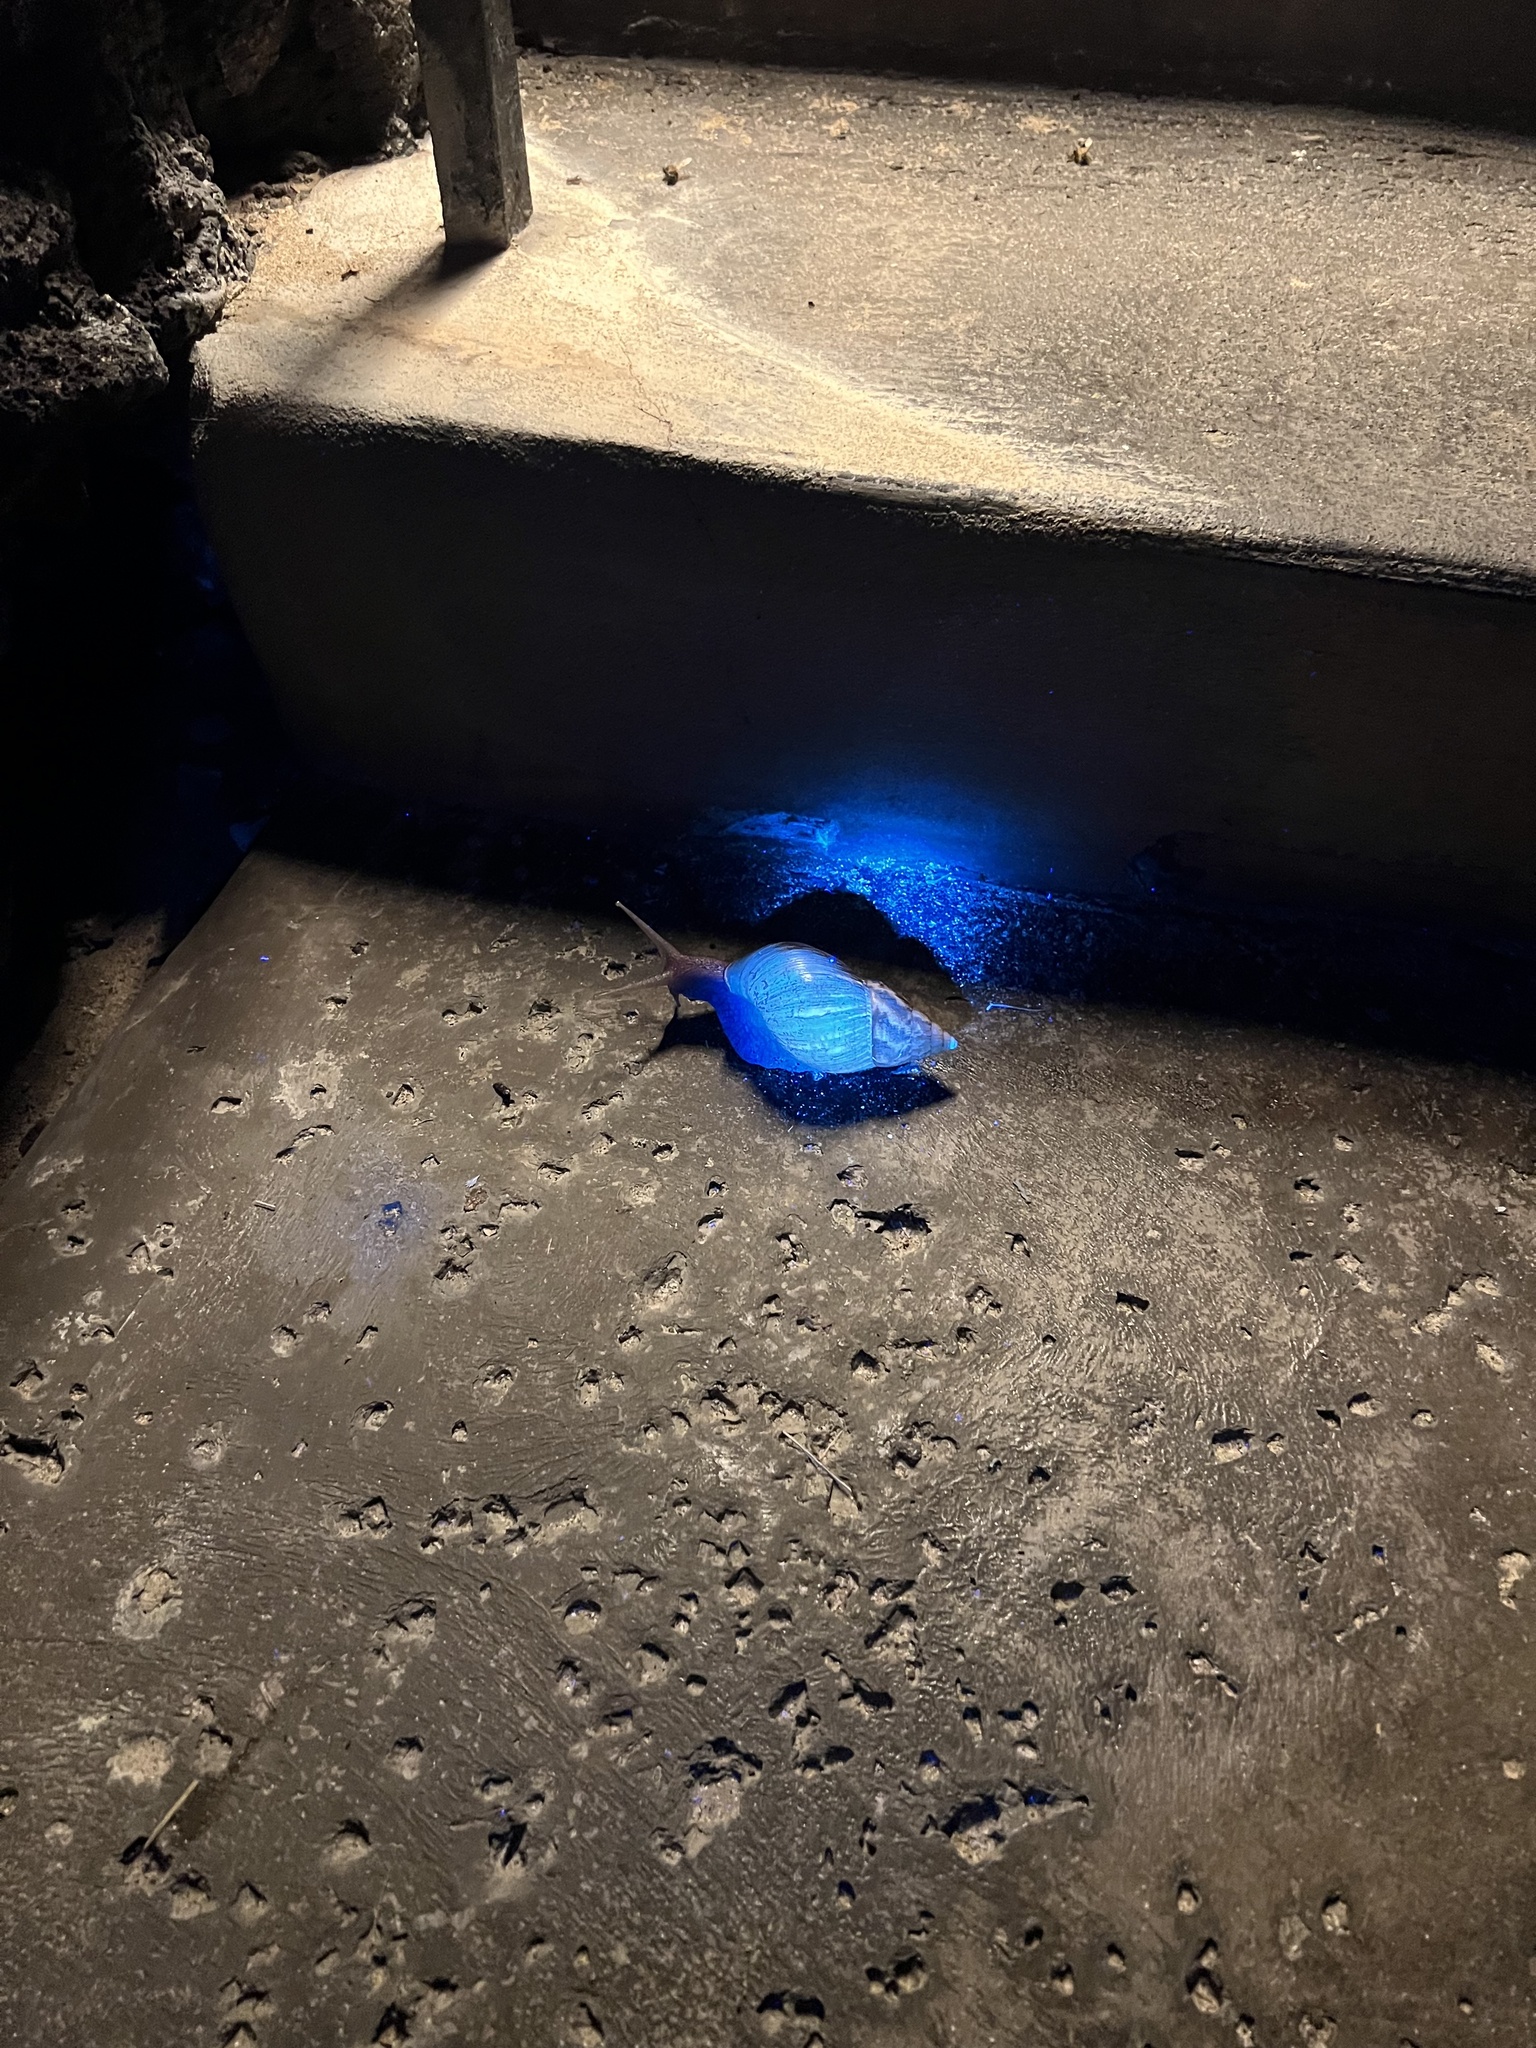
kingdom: Animalia
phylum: Mollusca
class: Gastropoda
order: Stylommatophora
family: Achatinidae
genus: Lissachatina
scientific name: Lissachatina fulica
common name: Giant african snail
